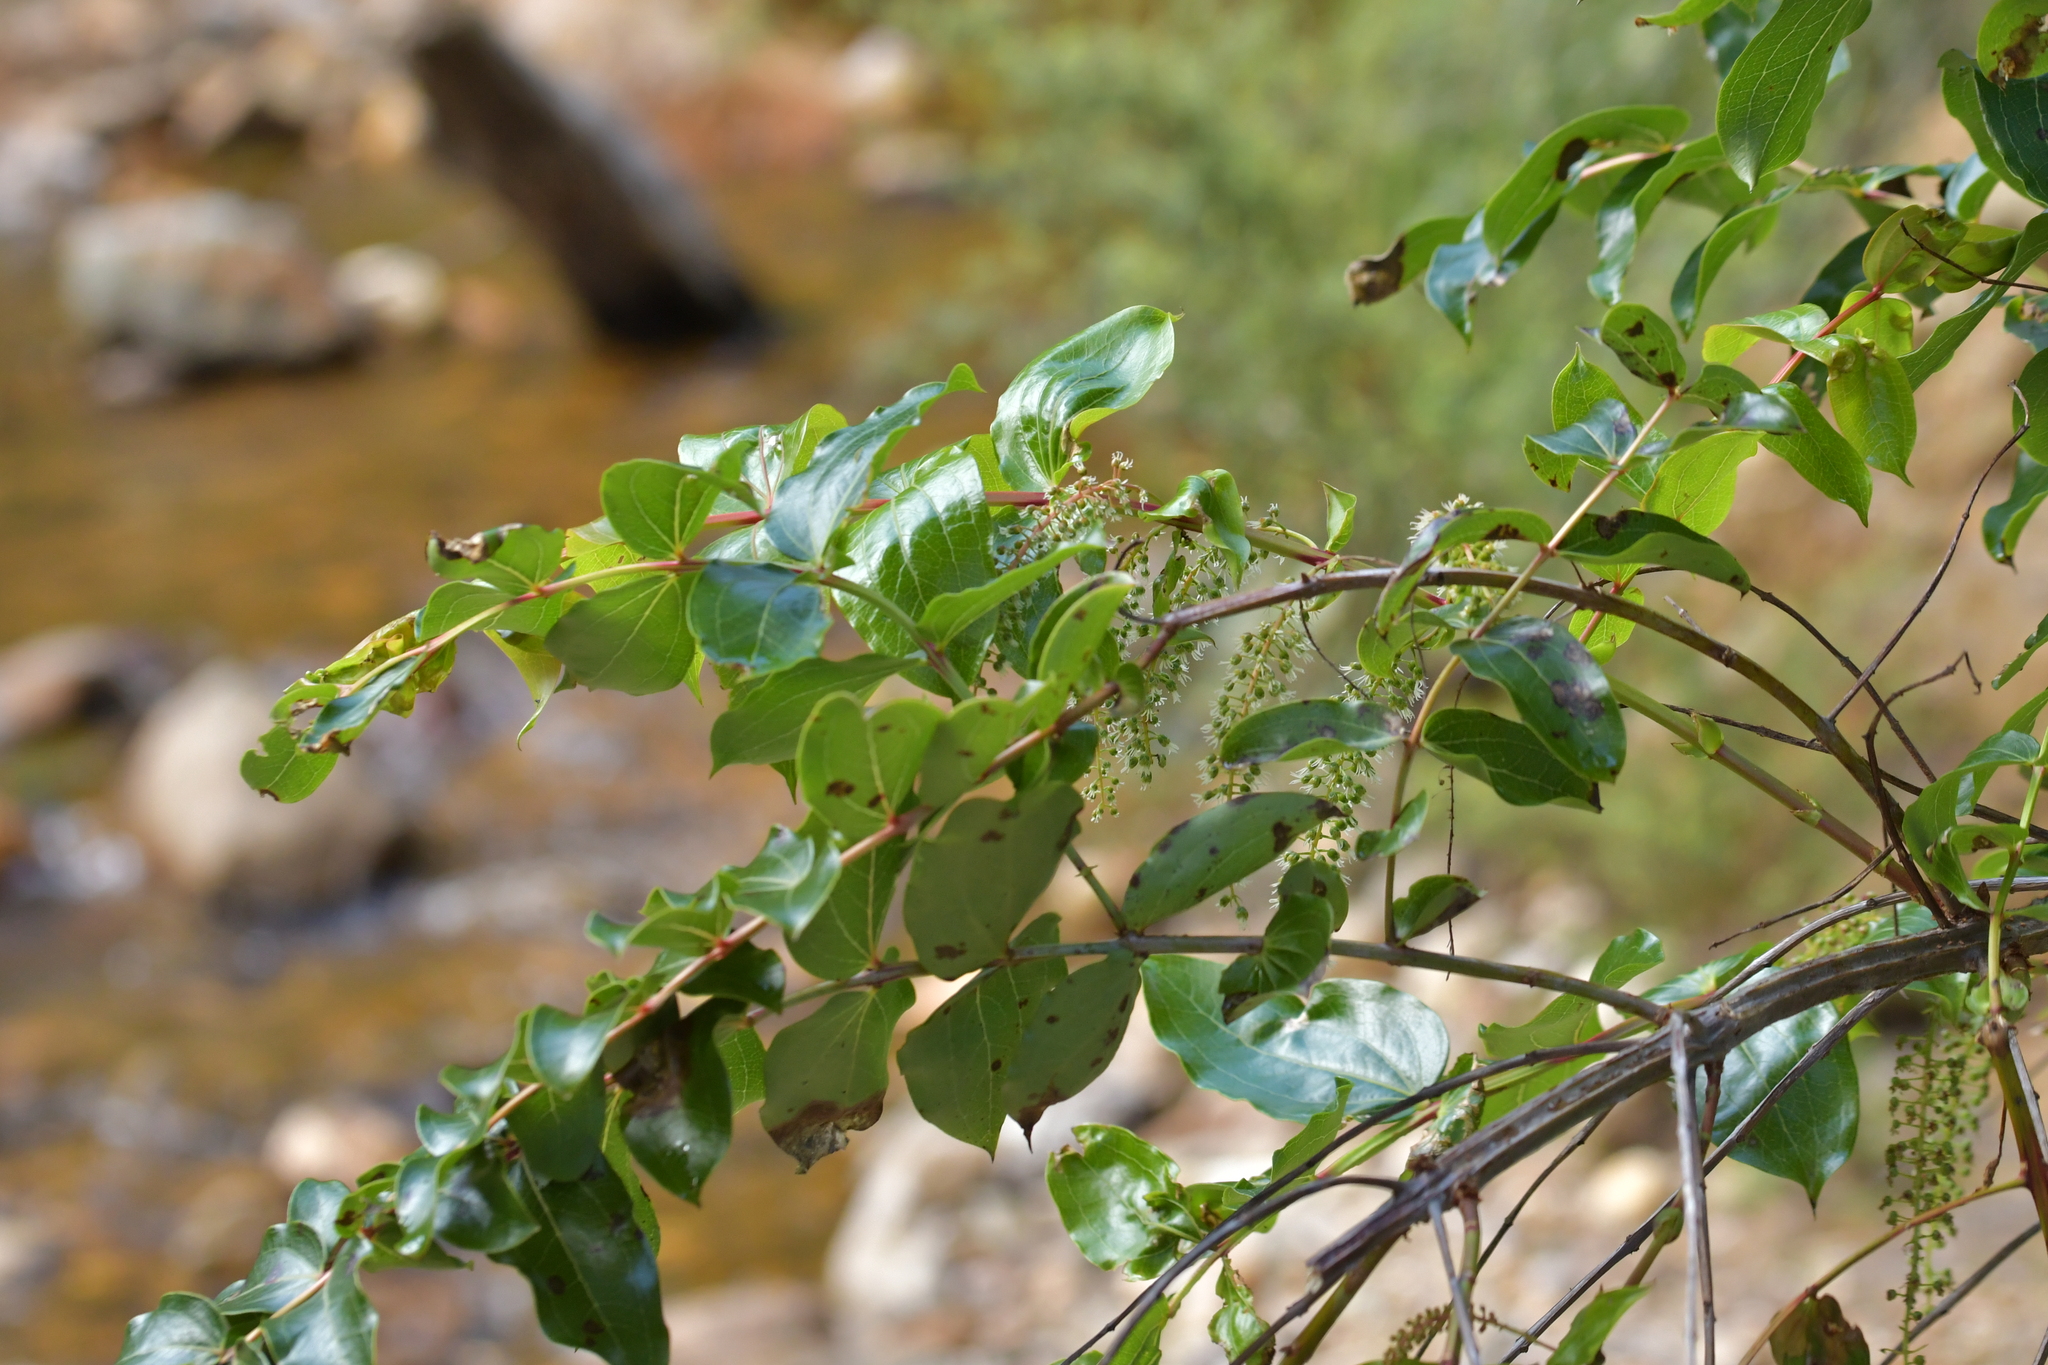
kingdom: Plantae
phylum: Tracheophyta
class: Magnoliopsida
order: Cucurbitales
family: Coriariaceae
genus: Coriaria
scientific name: Coriaria arborea
